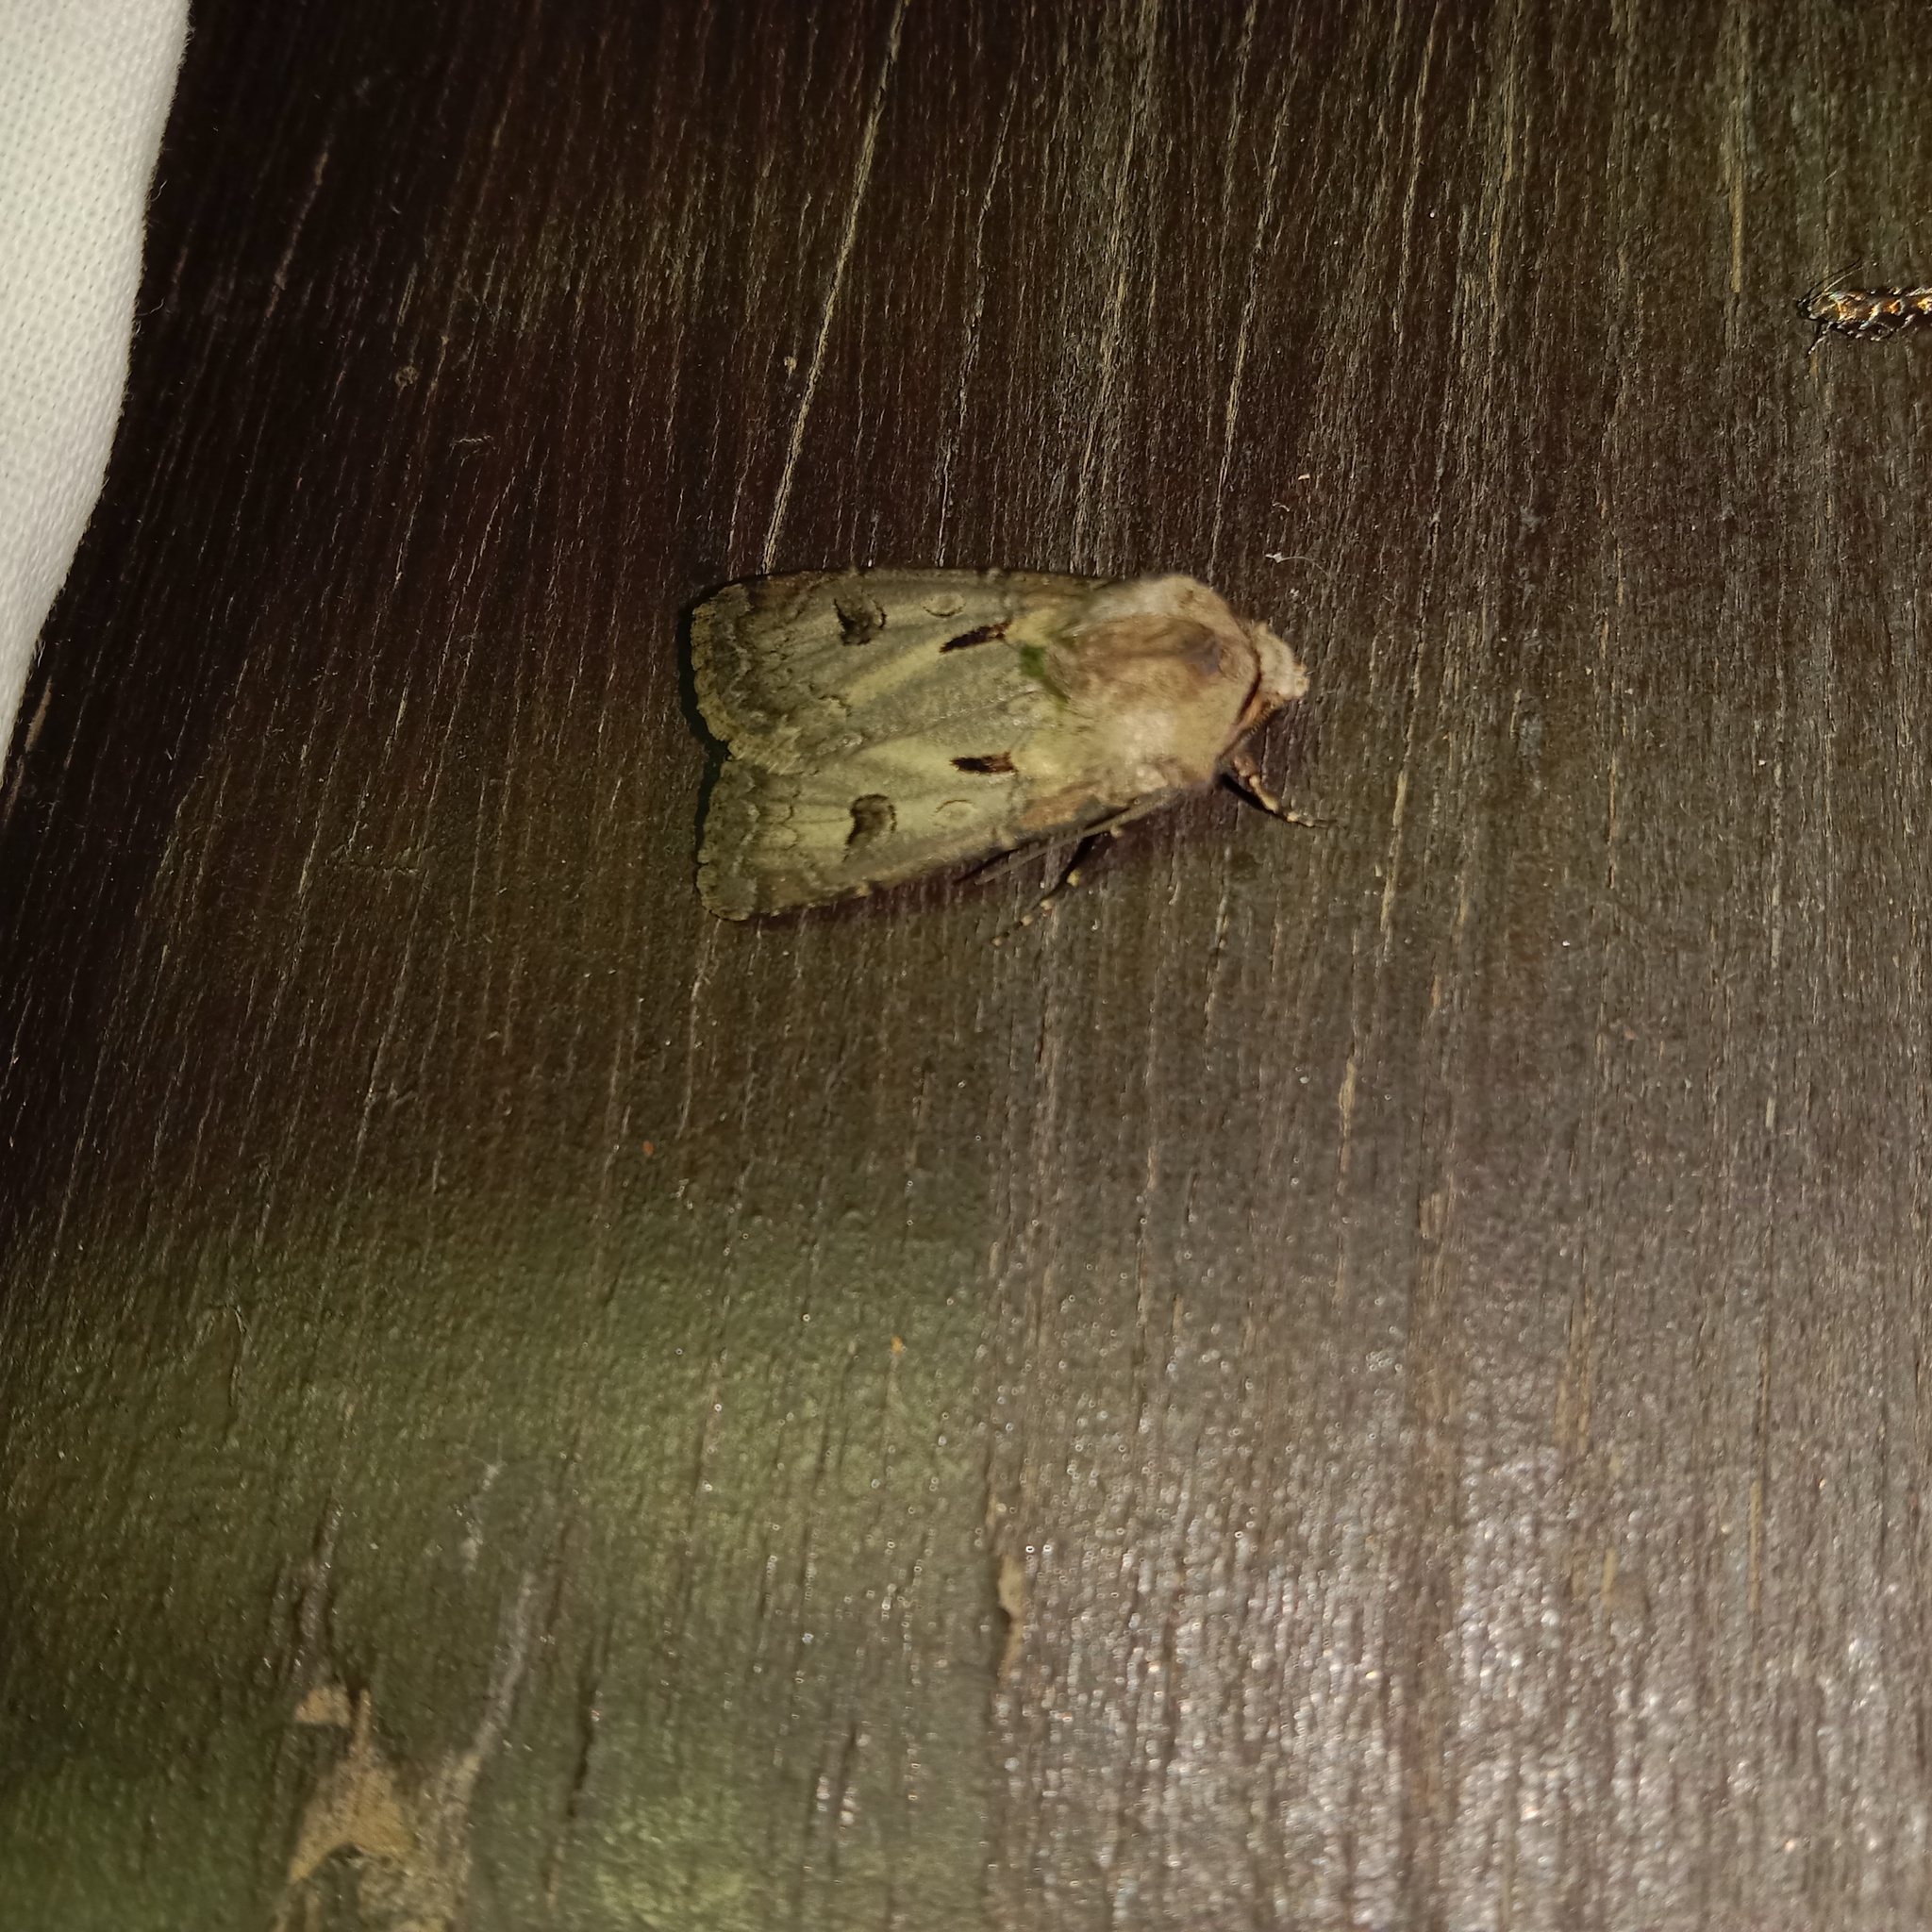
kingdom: Animalia
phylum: Arthropoda
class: Insecta
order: Lepidoptera
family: Noctuidae
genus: Agrotis
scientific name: Agrotis exclamationis
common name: Heart and dart
